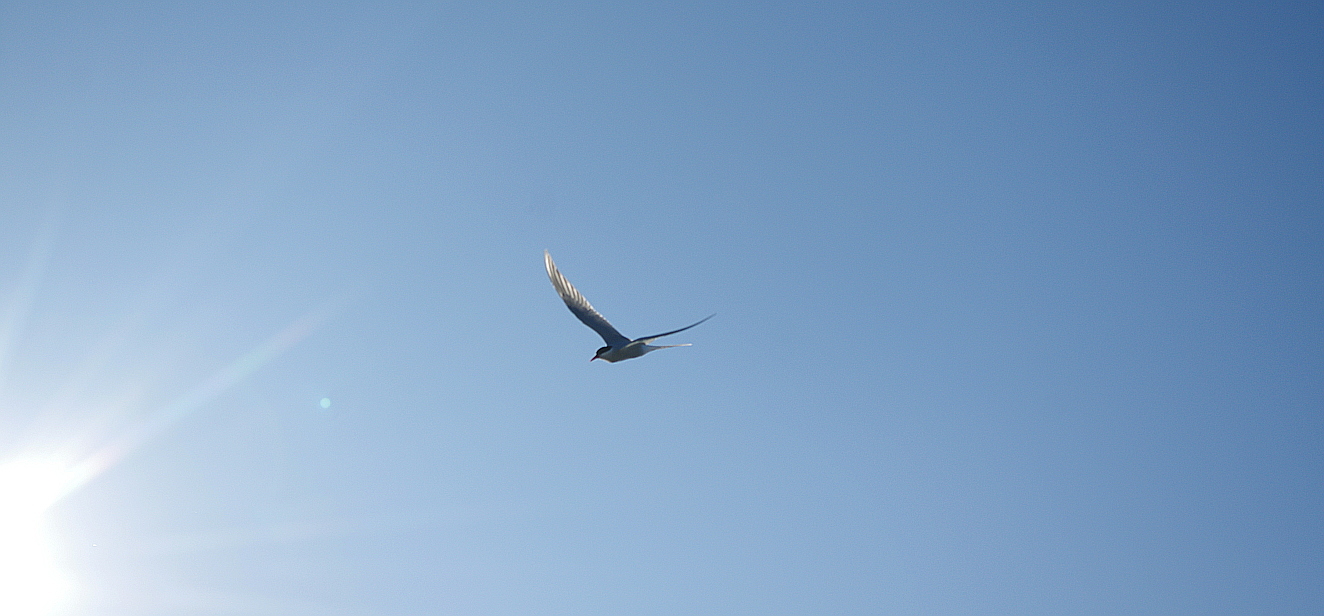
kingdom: Animalia
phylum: Chordata
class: Aves
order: Charadriiformes
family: Laridae
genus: Sterna
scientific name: Sterna paradisaea
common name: Arctic tern
